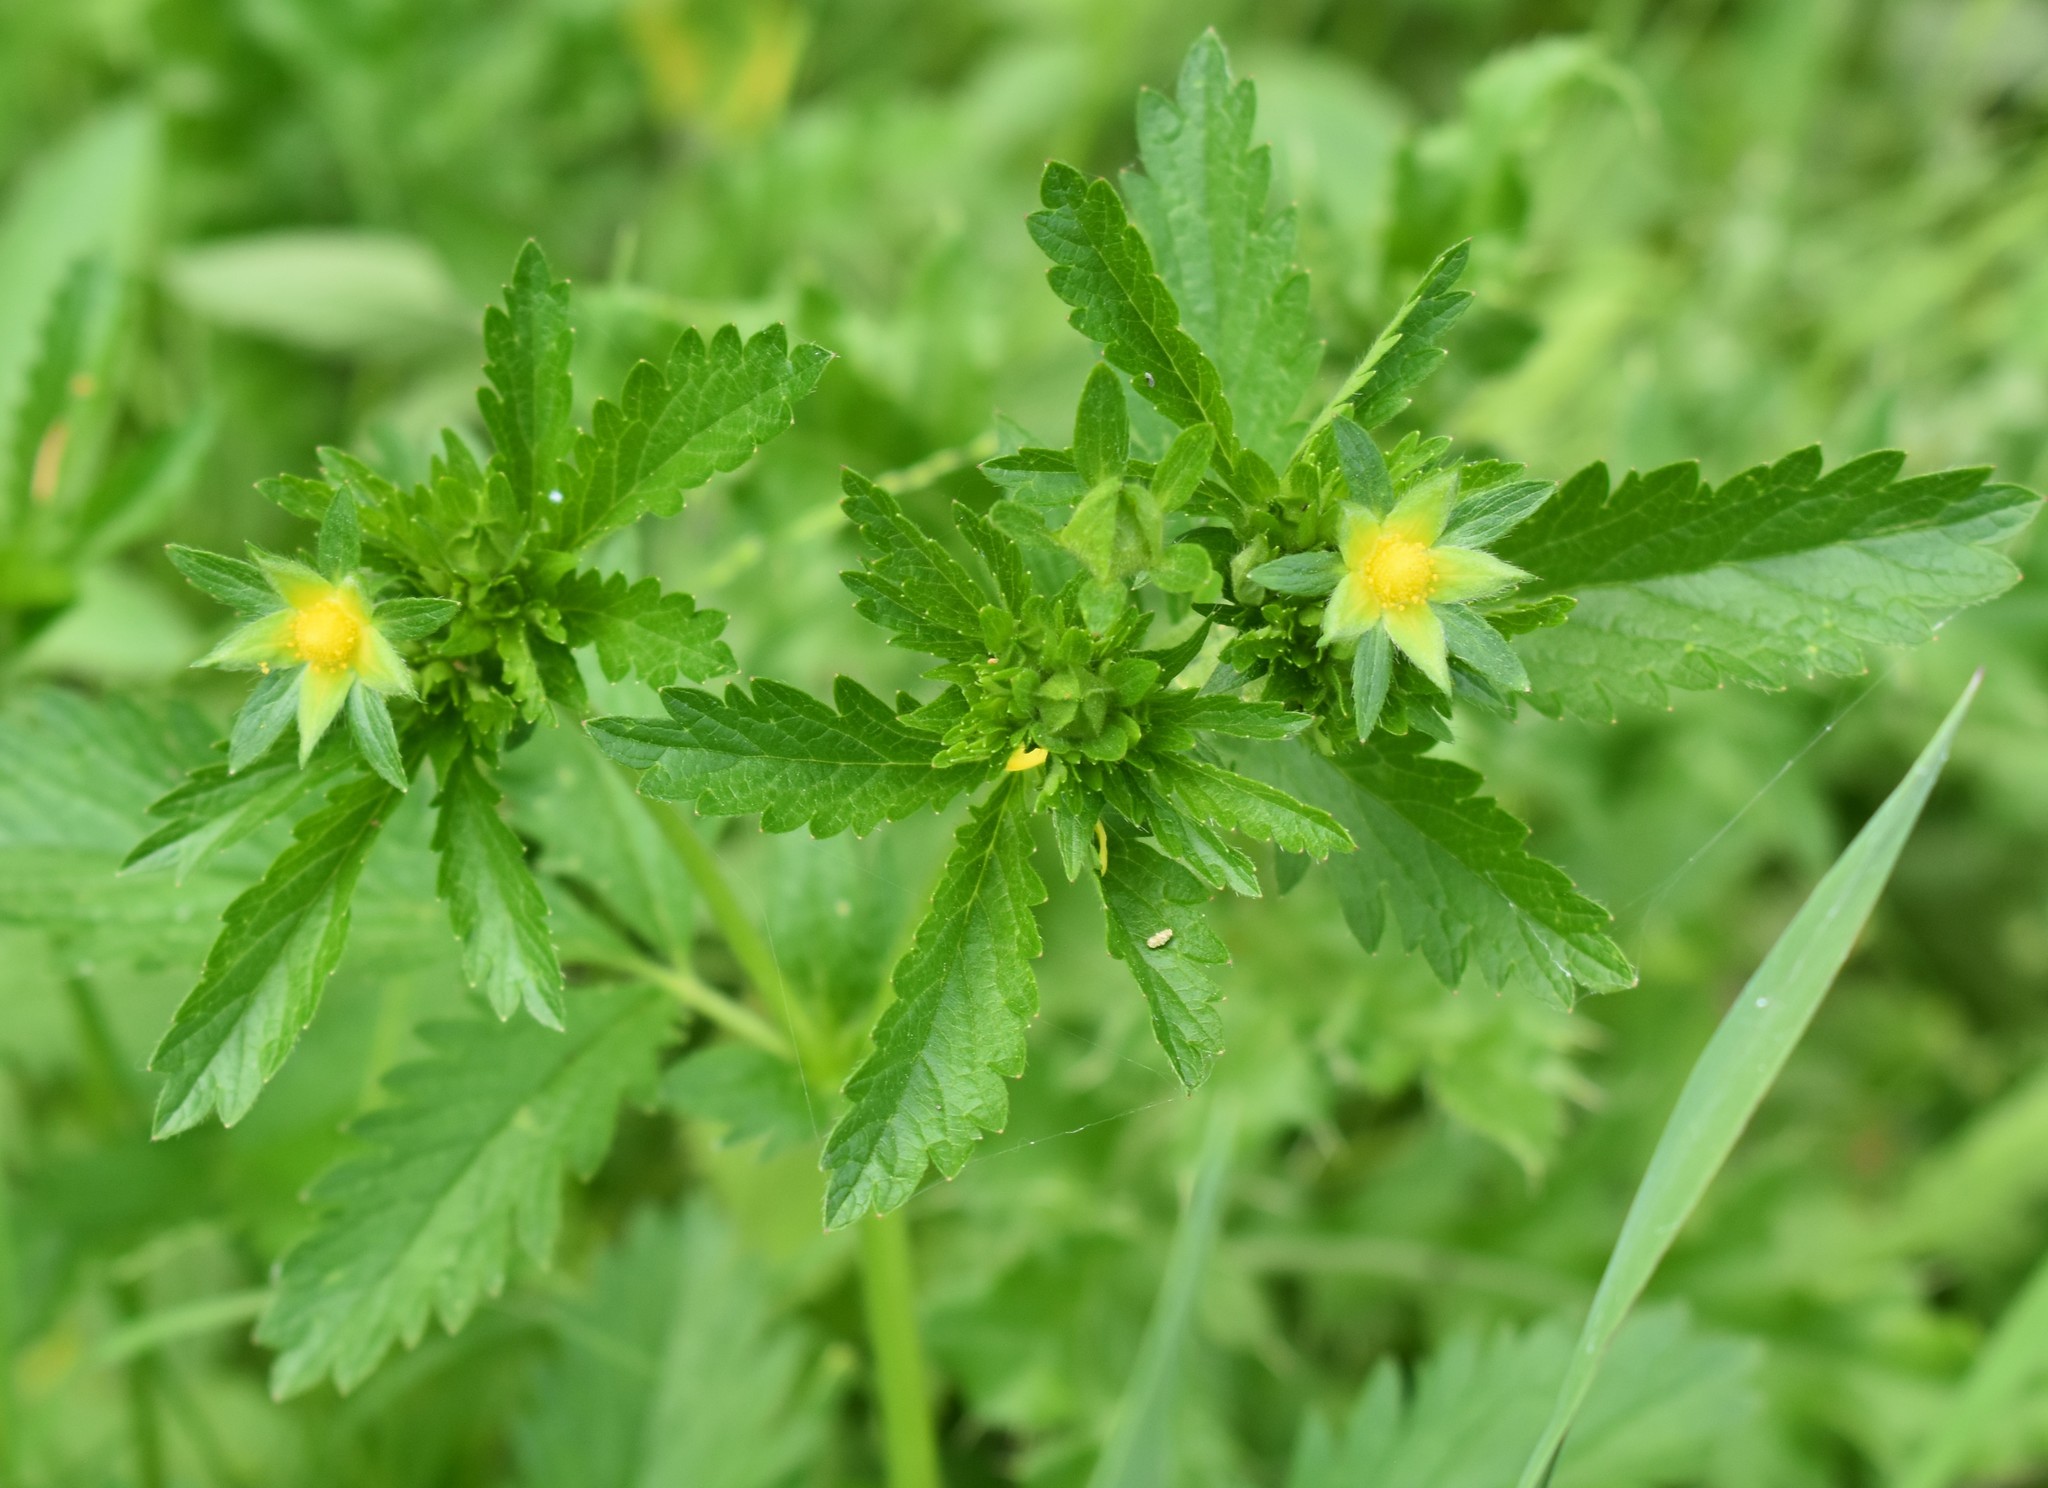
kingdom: Plantae
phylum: Tracheophyta
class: Magnoliopsida
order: Rosales
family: Rosaceae
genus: Potentilla
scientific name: Potentilla norvegica
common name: Ternate-leaved cinquefoil
